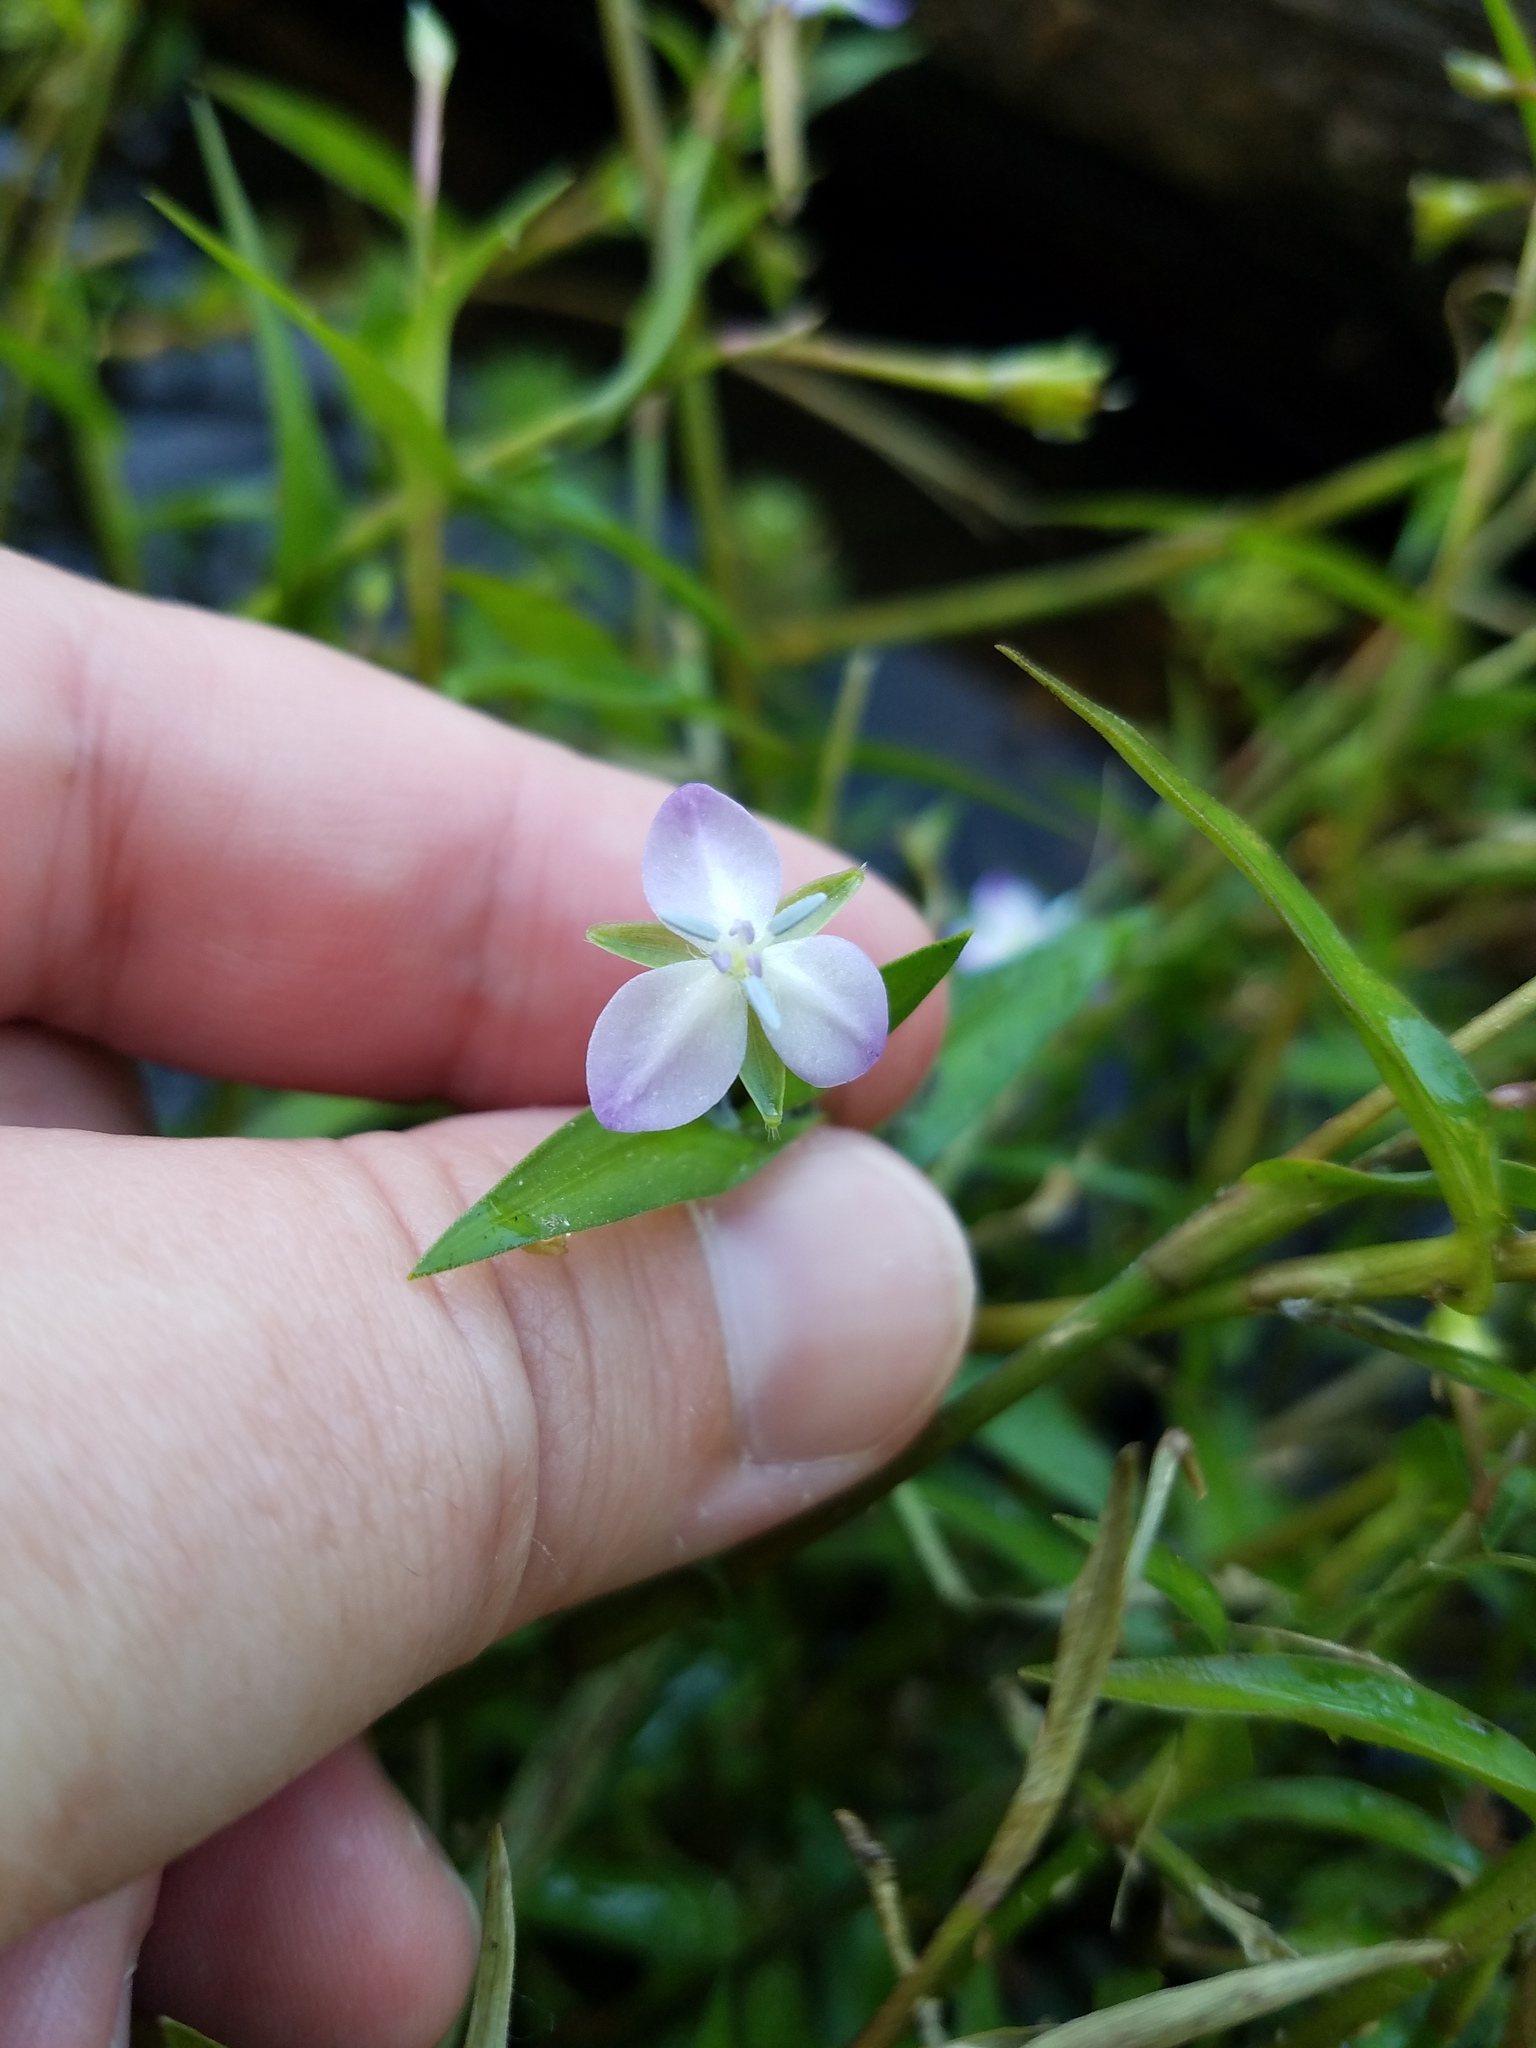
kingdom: Plantae
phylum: Tracheophyta
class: Liliopsida
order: Commelinales
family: Commelinaceae
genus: Murdannia
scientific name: Murdannia keisak
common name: Wartremoving herb
